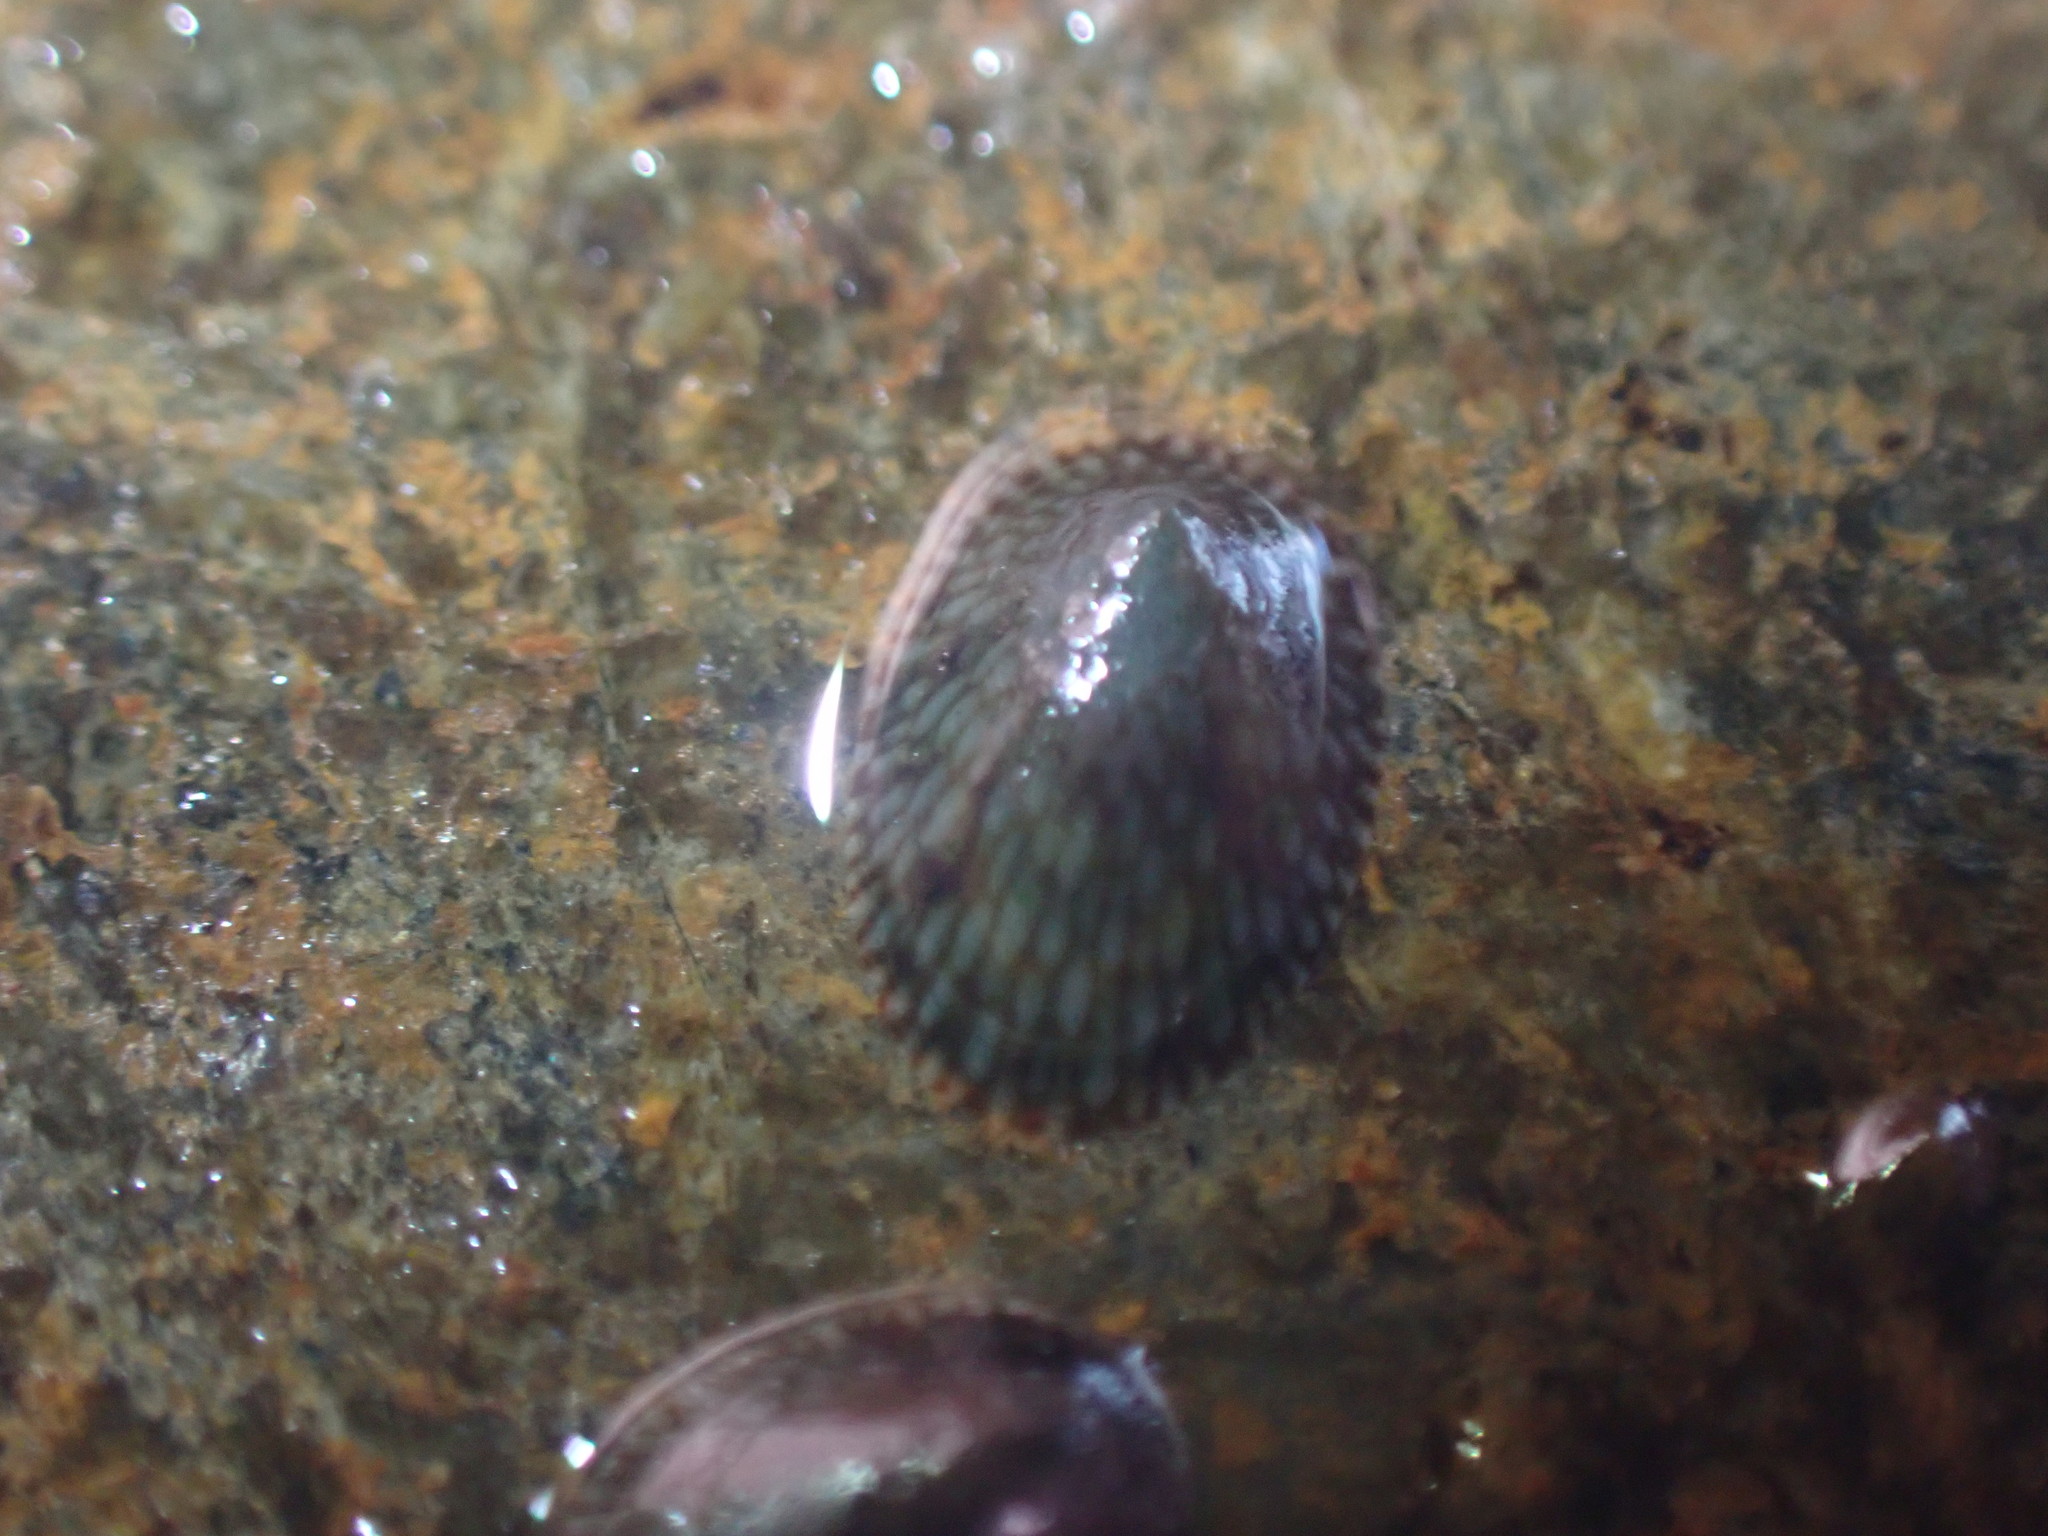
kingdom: Animalia
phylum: Mollusca
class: Gastropoda
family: Lottiidae
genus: Notoacmea
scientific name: Notoacmea
